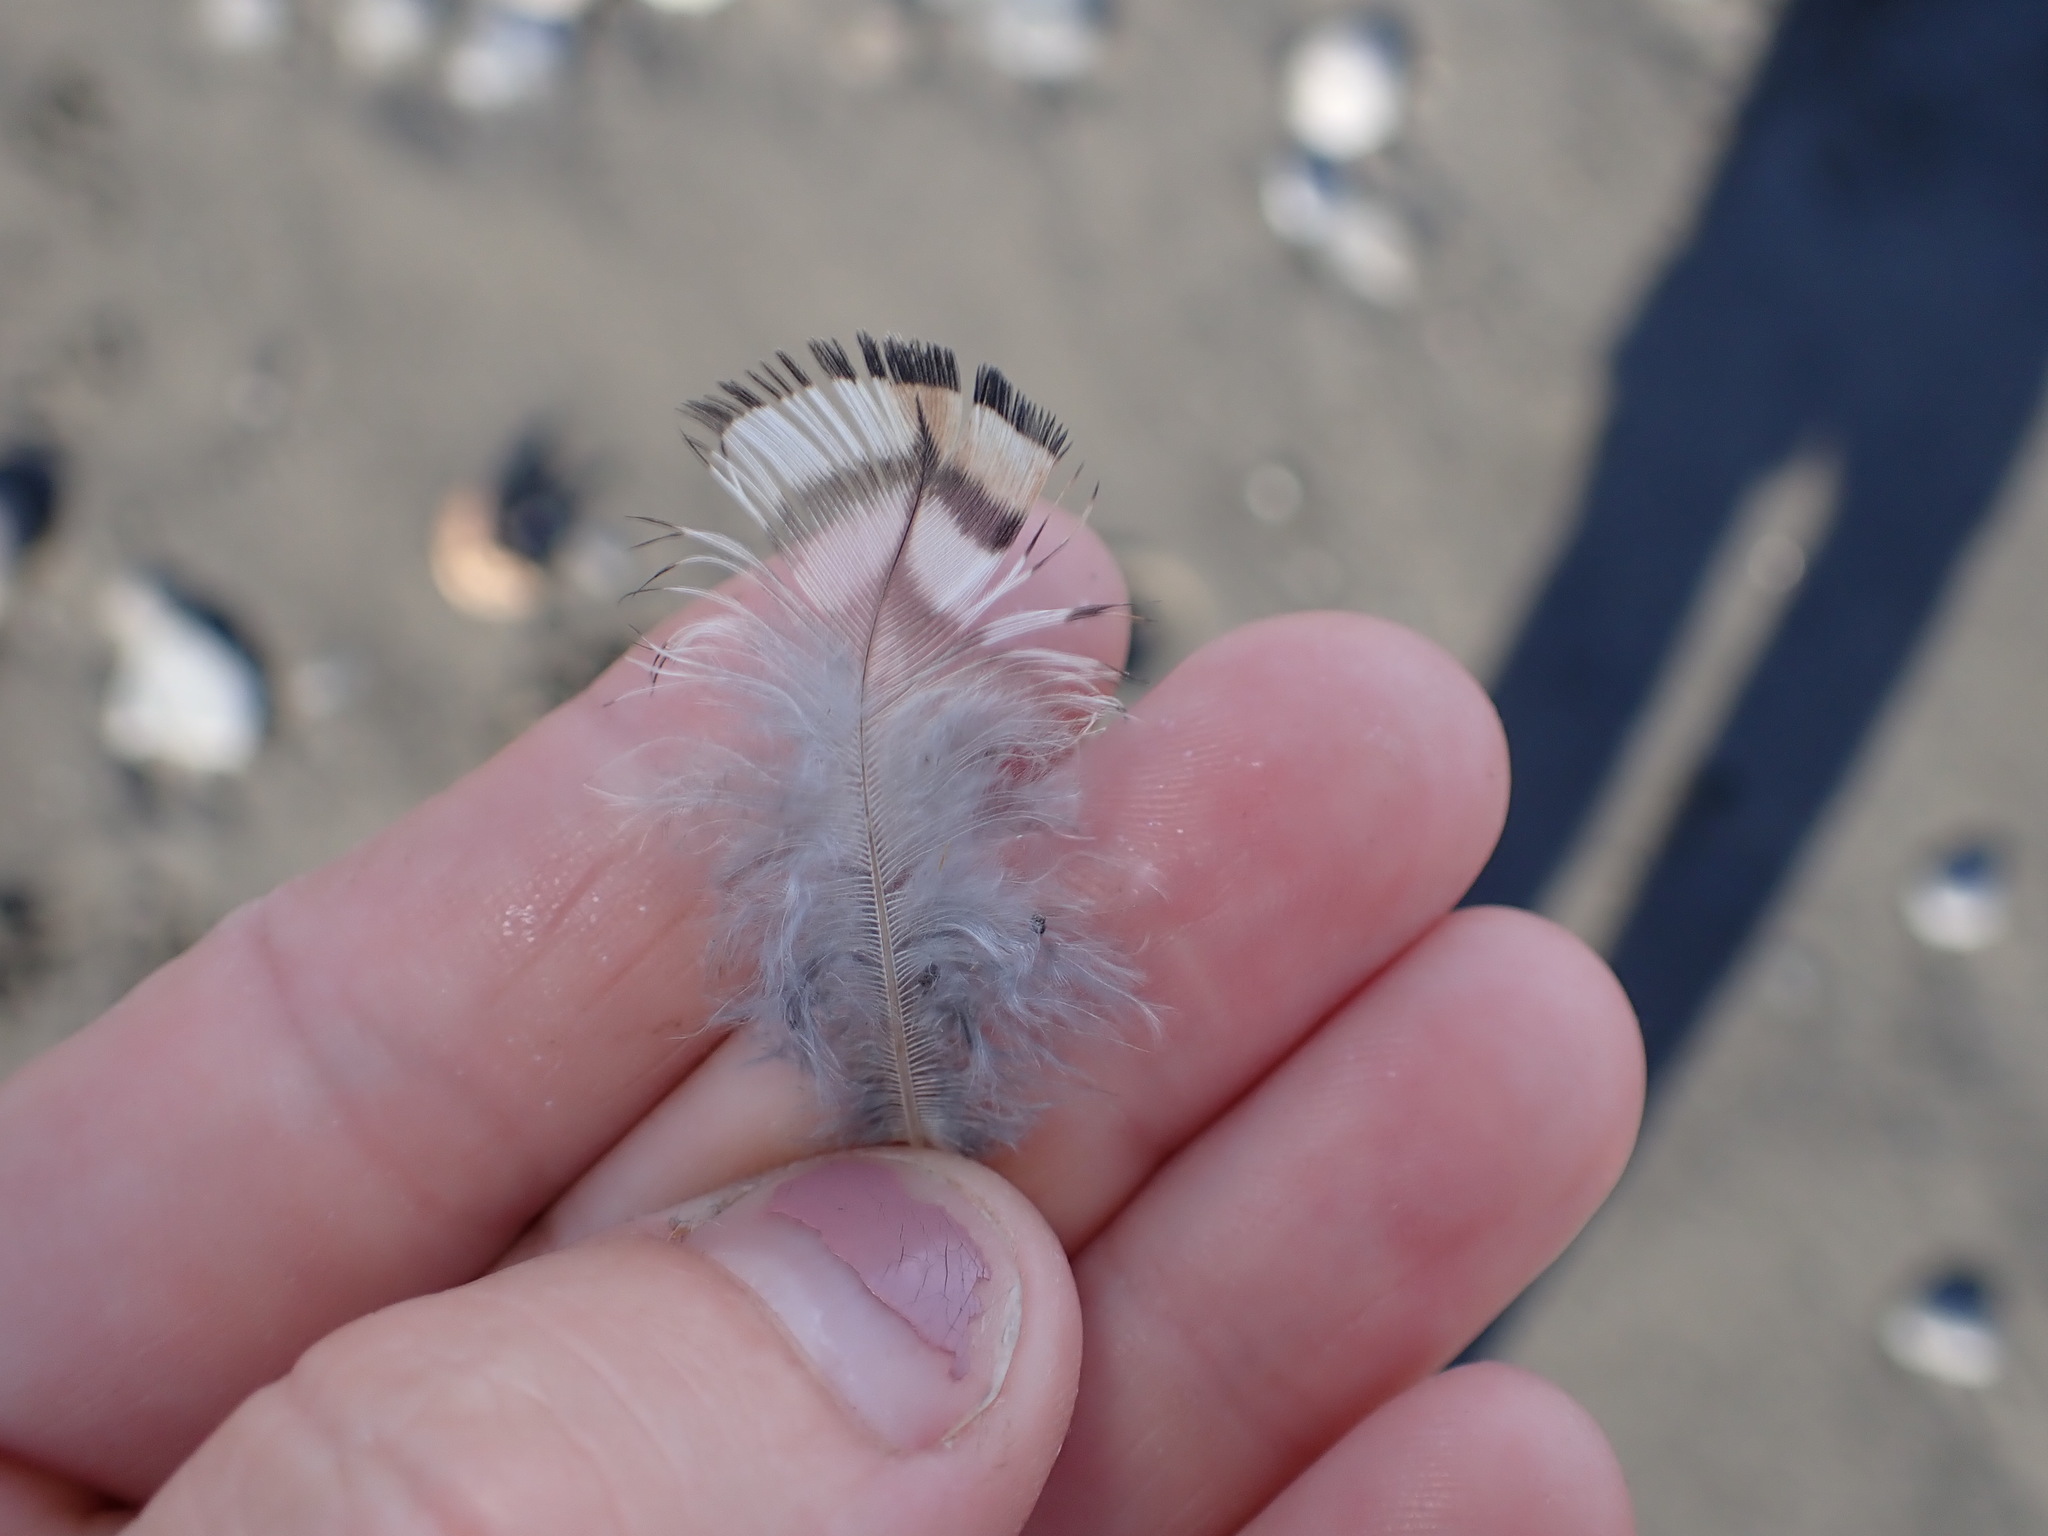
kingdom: Animalia
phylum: Chordata
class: Aves
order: Galliformes
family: Odontophoridae
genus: Callipepla
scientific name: Callipepla californica
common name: California quail
